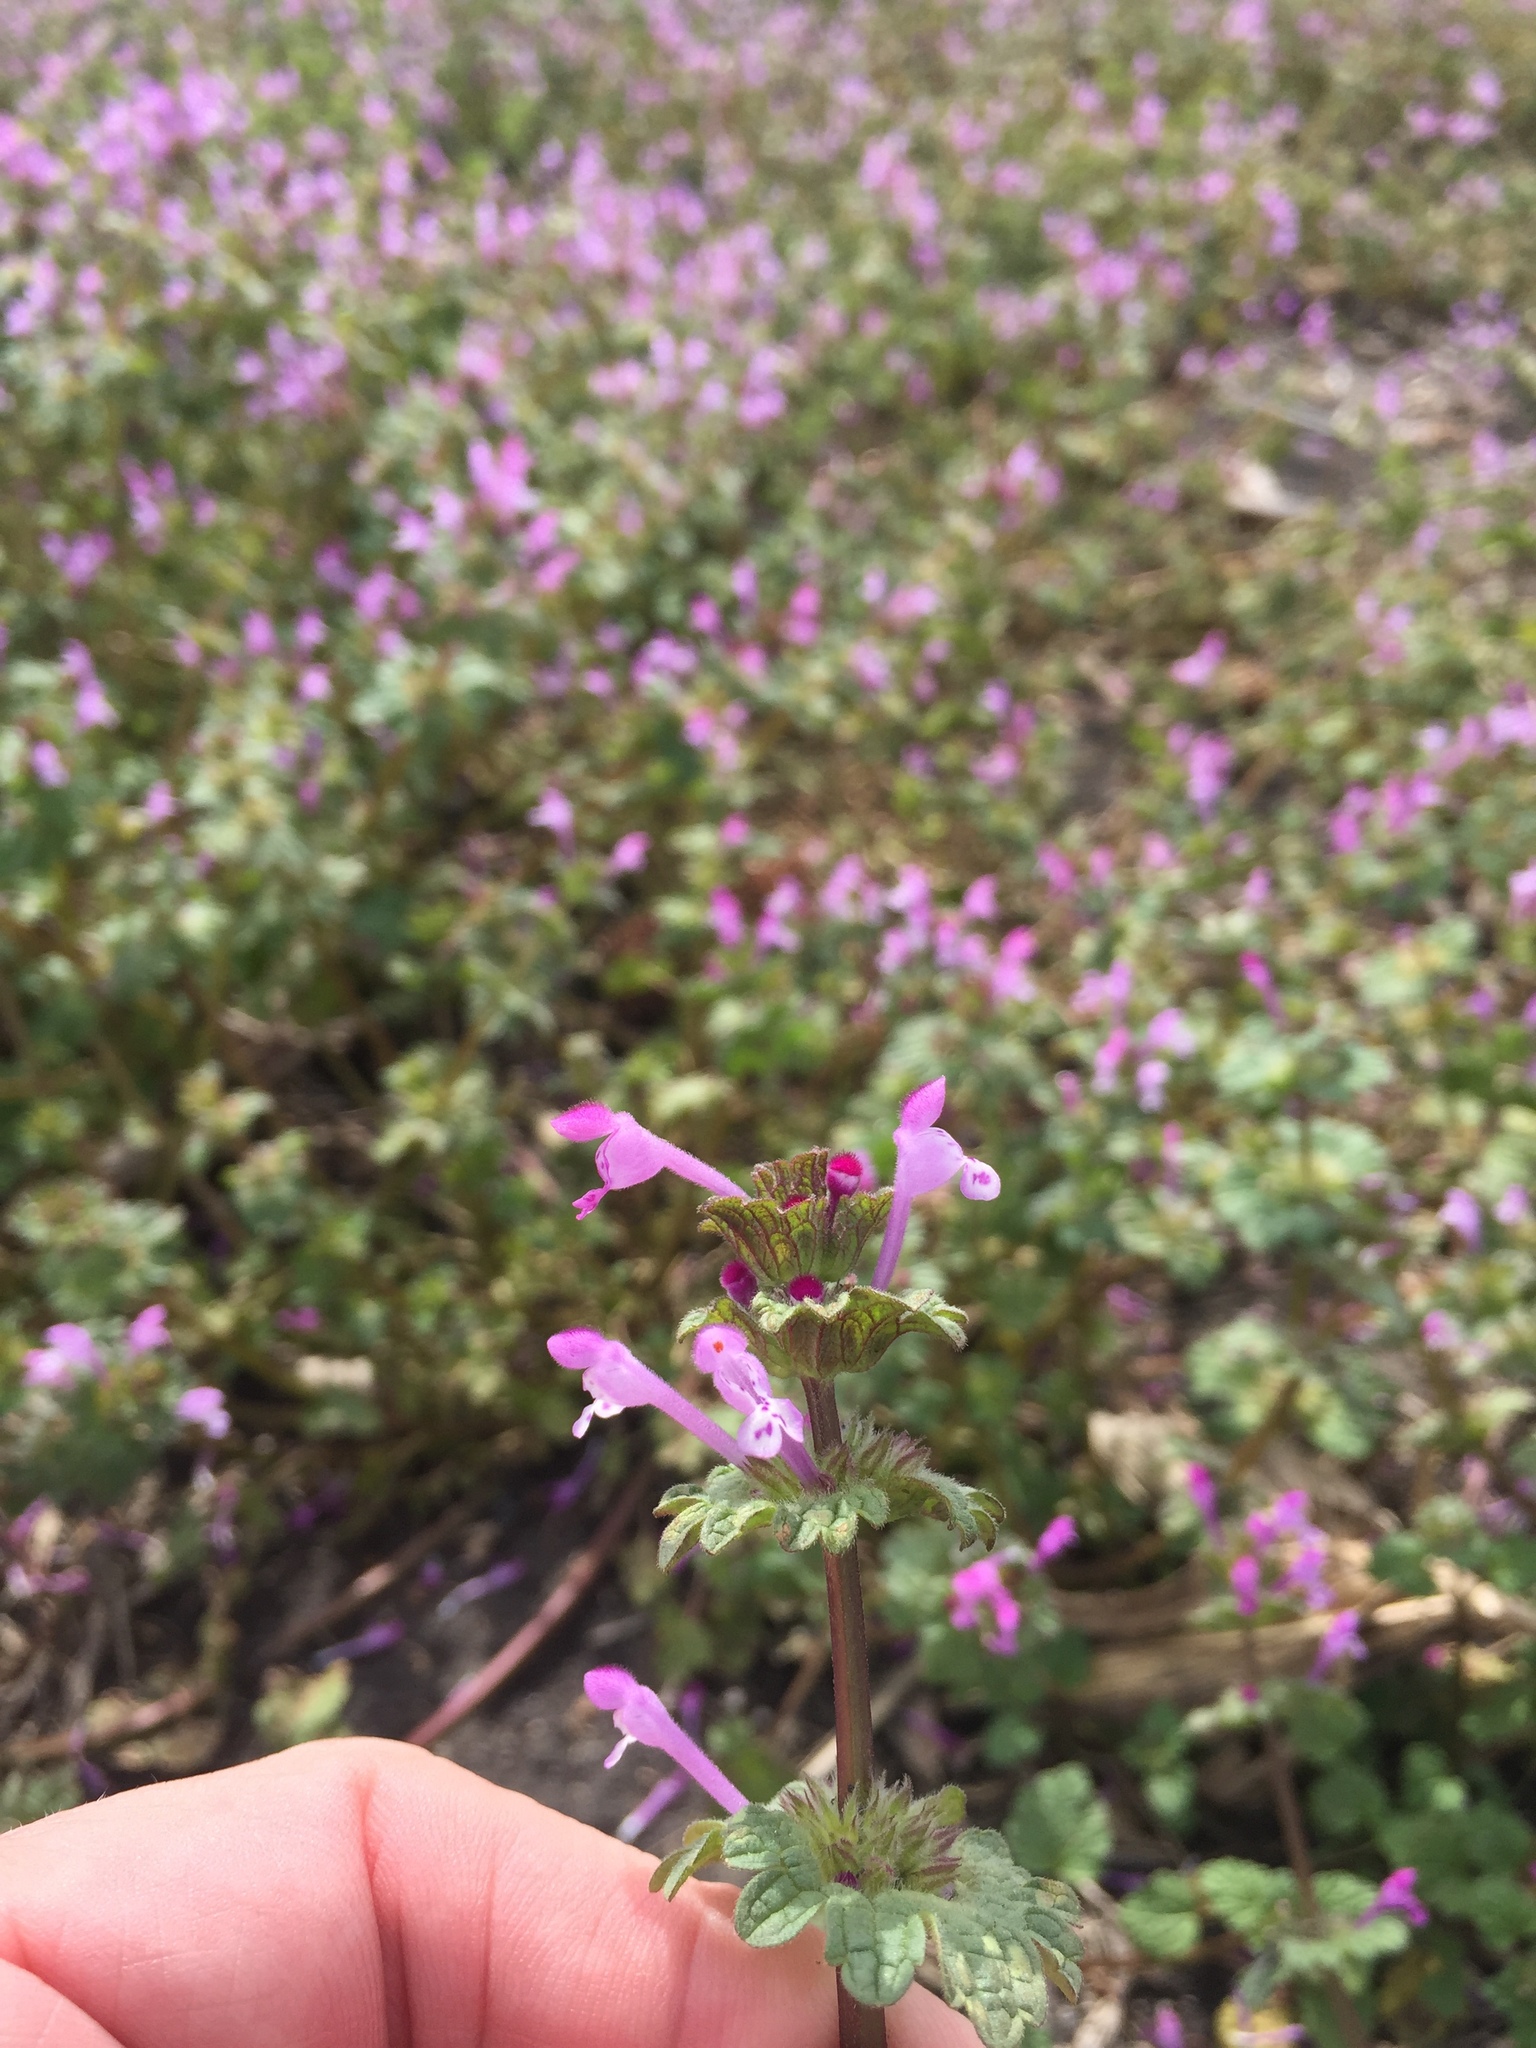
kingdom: Plantae
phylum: Tracheophyta
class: Magnoliopsida
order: Lamiales
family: Lamiaceae
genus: Lamium
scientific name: Lamium amplexicaule
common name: Henbit dead-nettle
